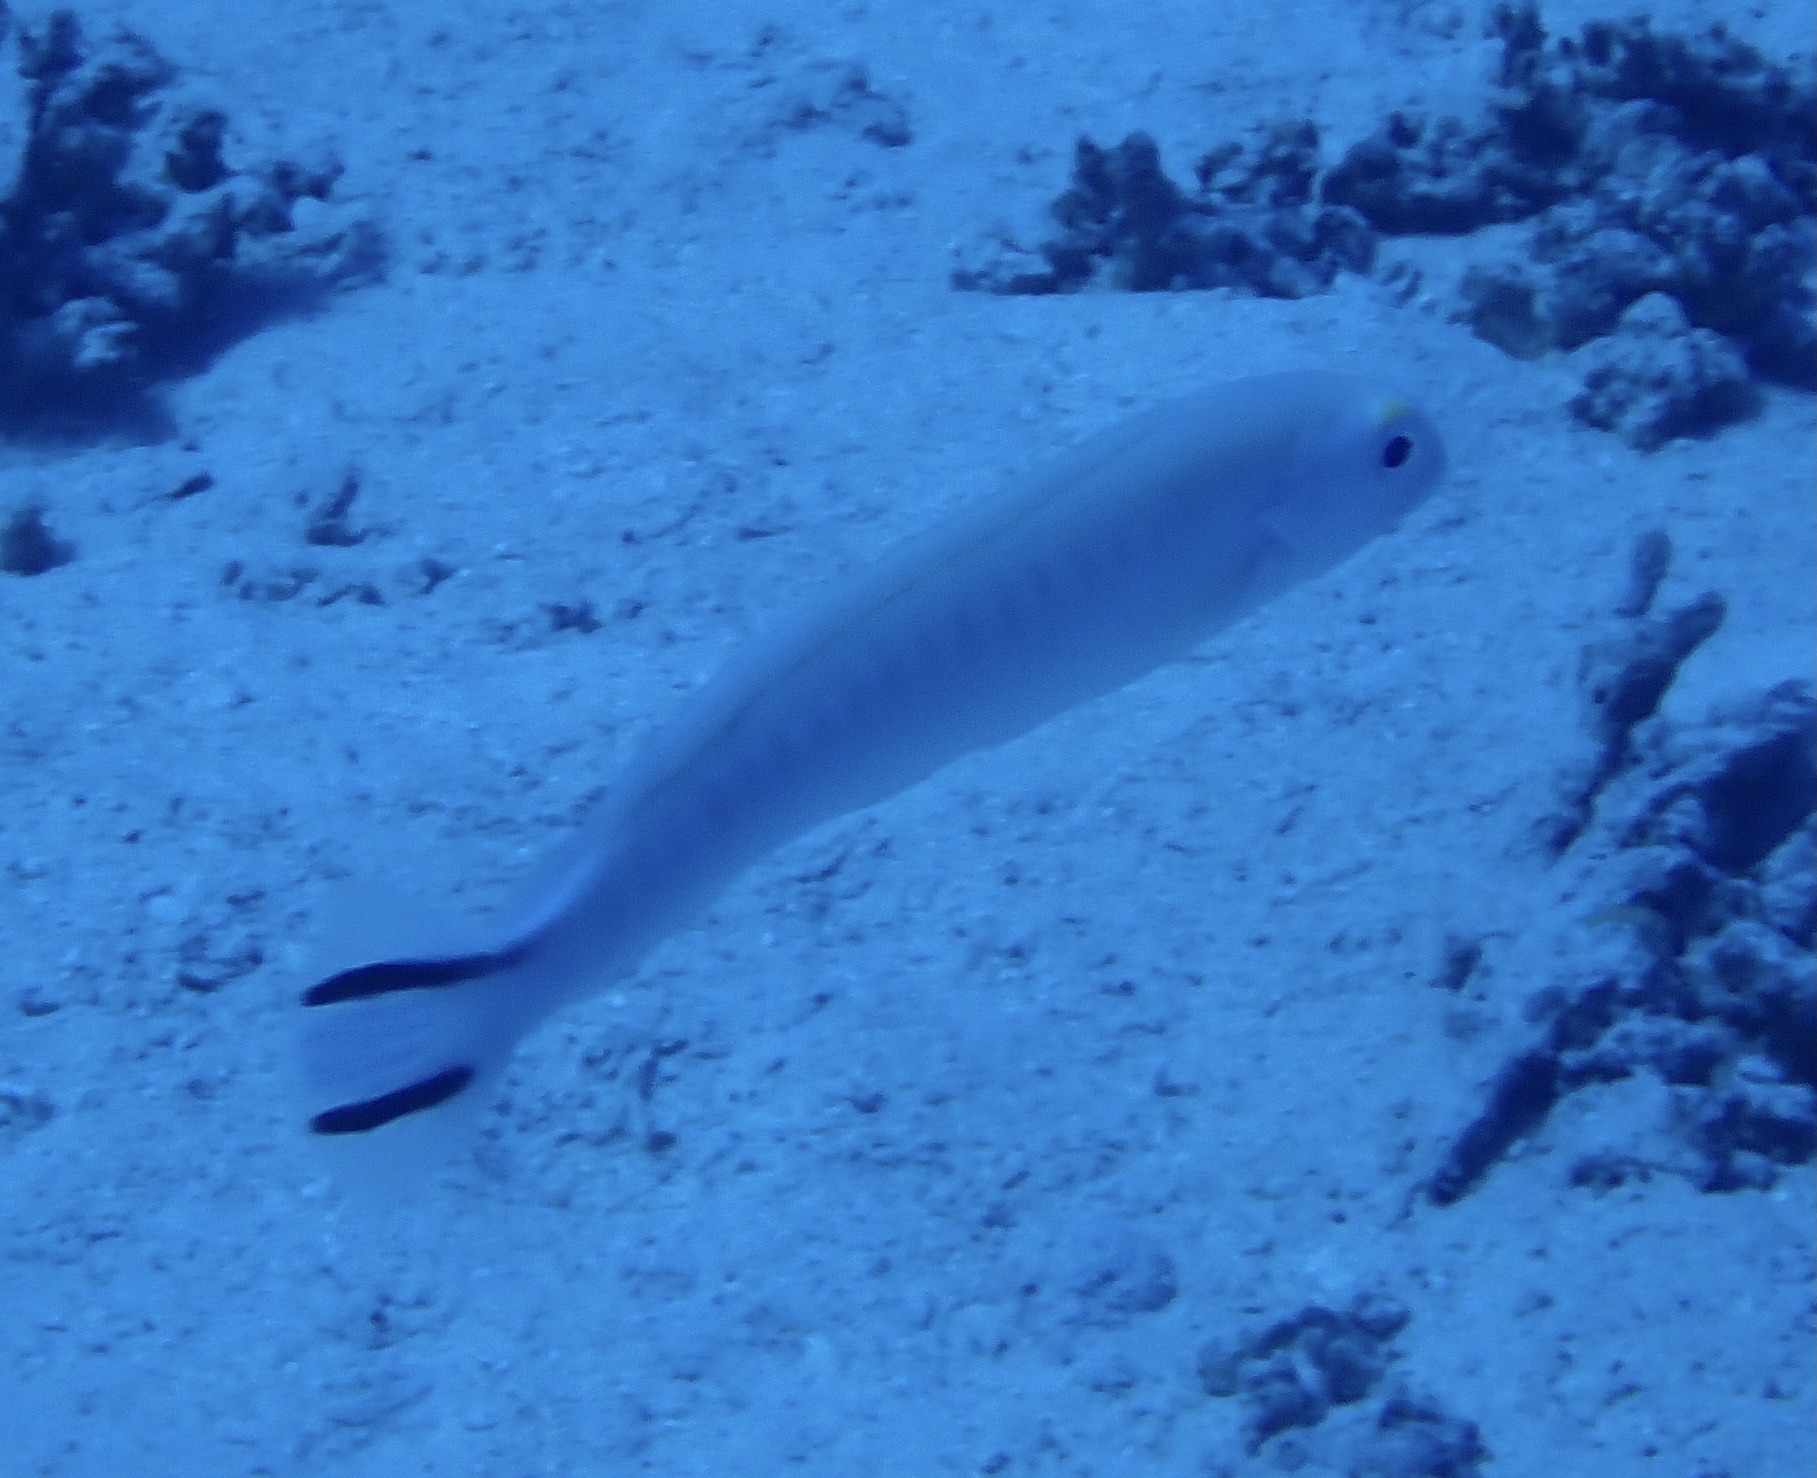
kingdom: Animalia
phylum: Chordata
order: Perciformes
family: Malacanthidae
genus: Malacanthus
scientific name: Malacanthus brevirostris
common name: Flagtail blanquillo
